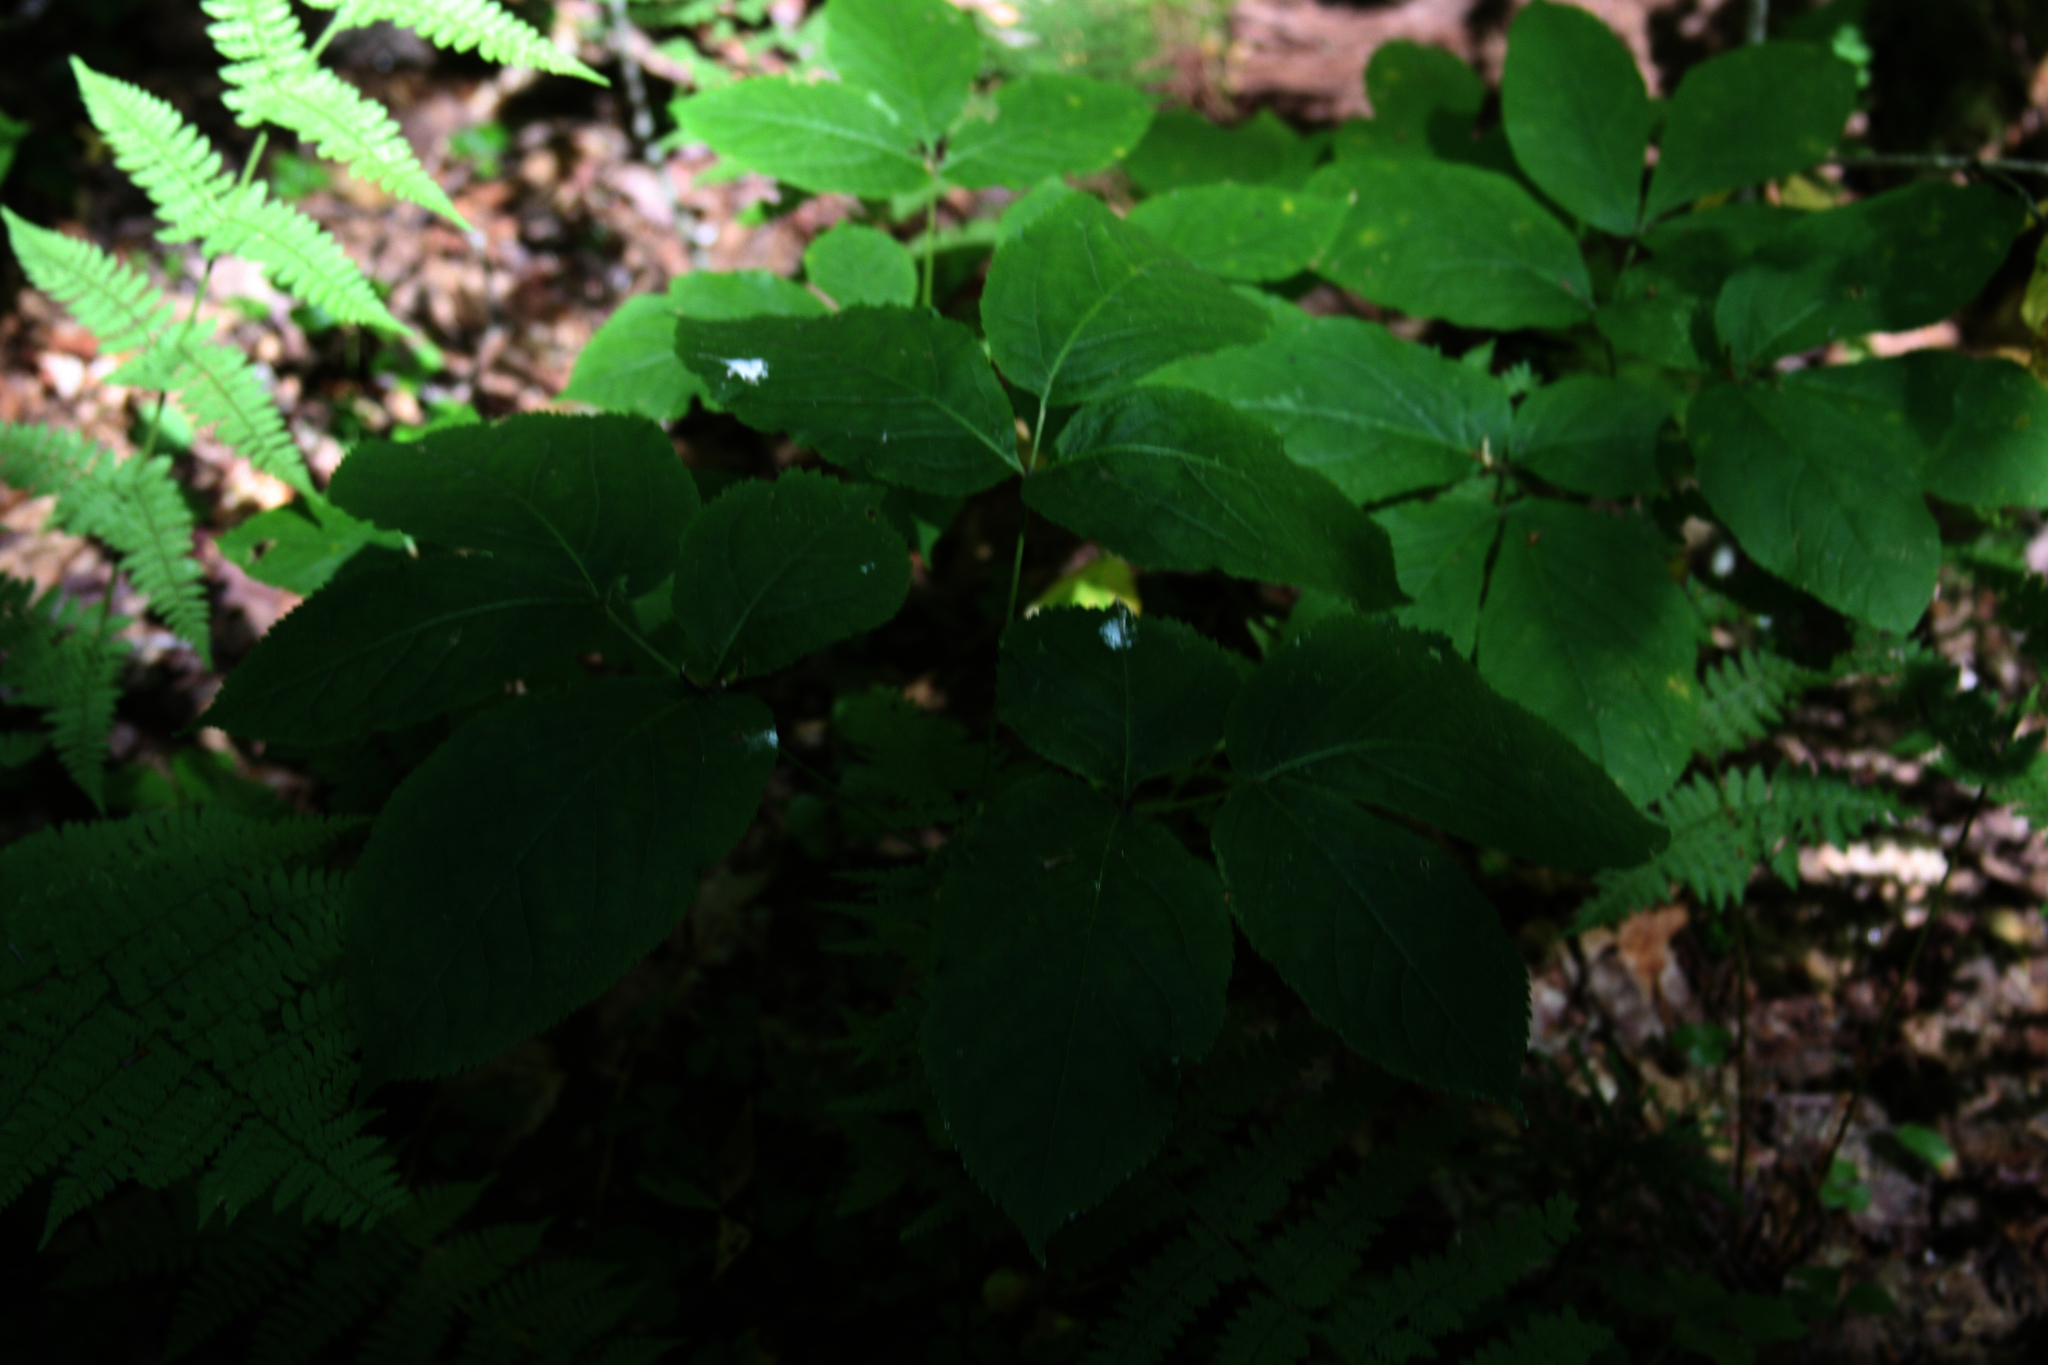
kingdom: Plantae
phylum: Tracheophyta
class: Magnoliopsida
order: Apiales
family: Araliaceae
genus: Aralia
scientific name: Aralia nudicaulis
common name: Wild sarsaparilla
